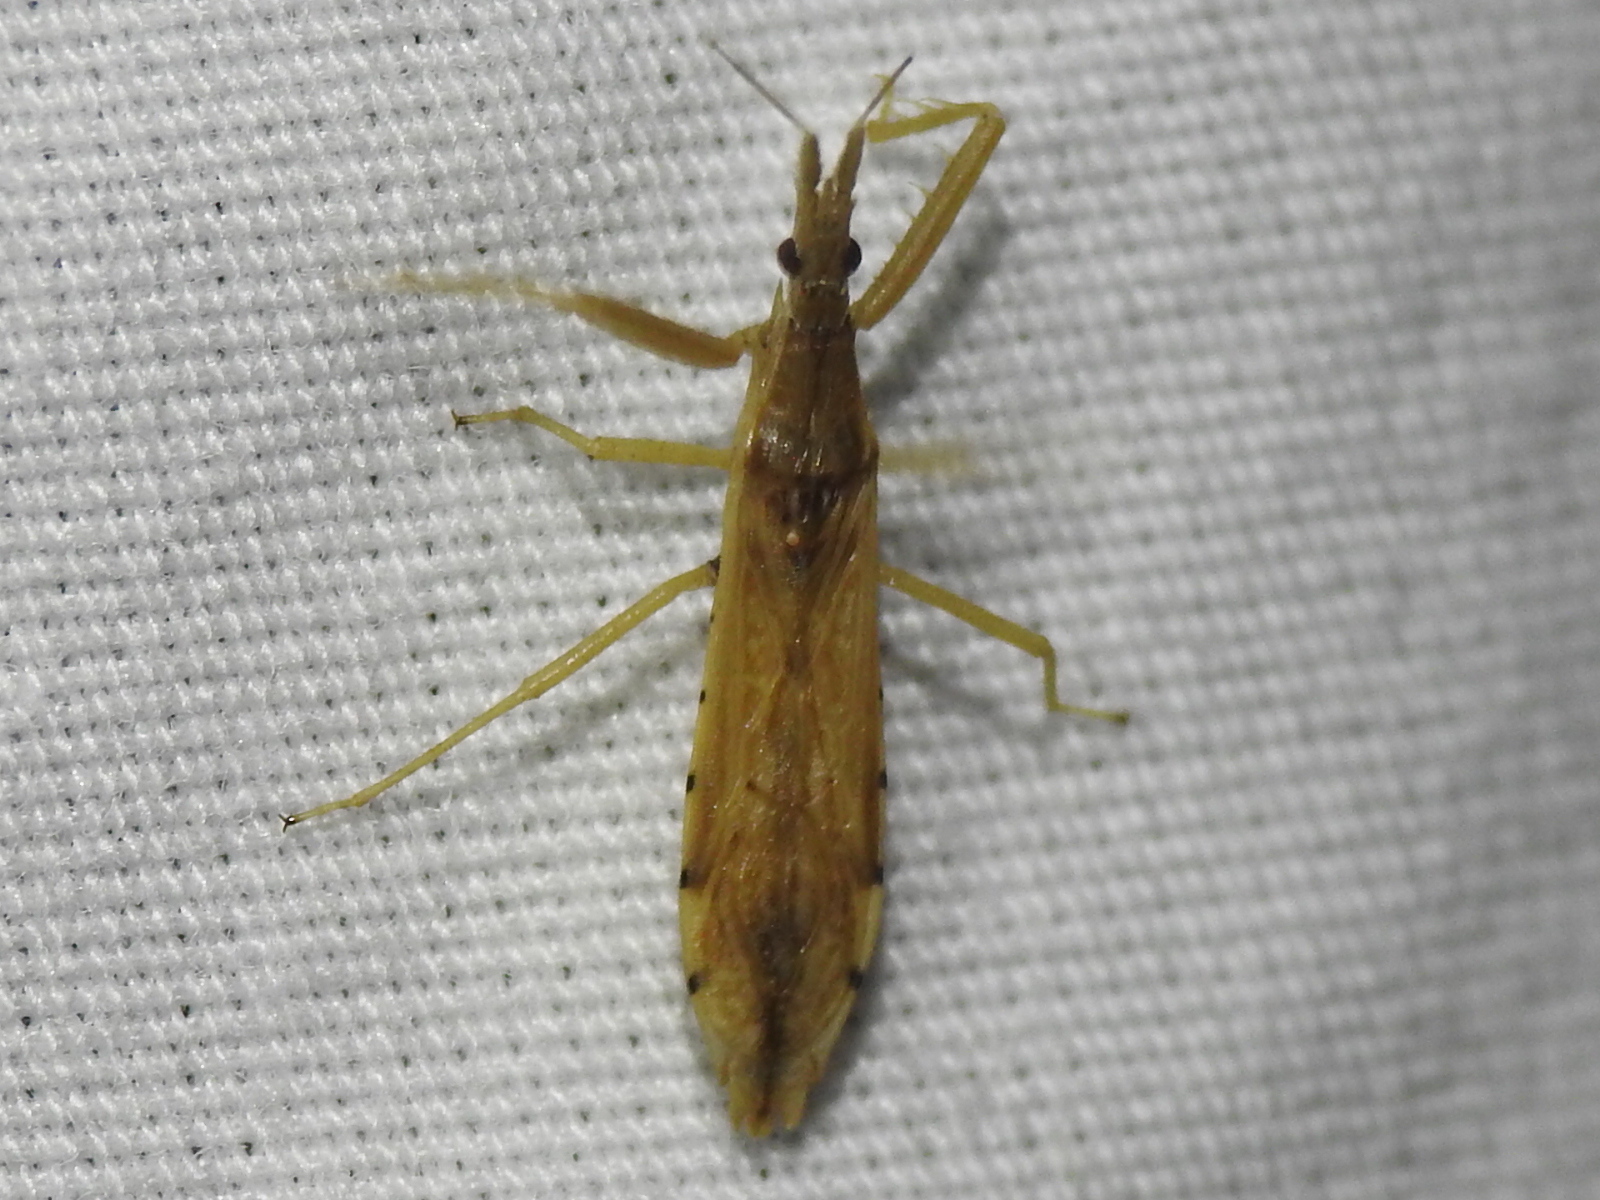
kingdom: Animalia
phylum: Arthropoda
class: Insecta
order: Hemiptera
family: Reduviidae
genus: Pnirontis
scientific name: Pnirontis infirma
